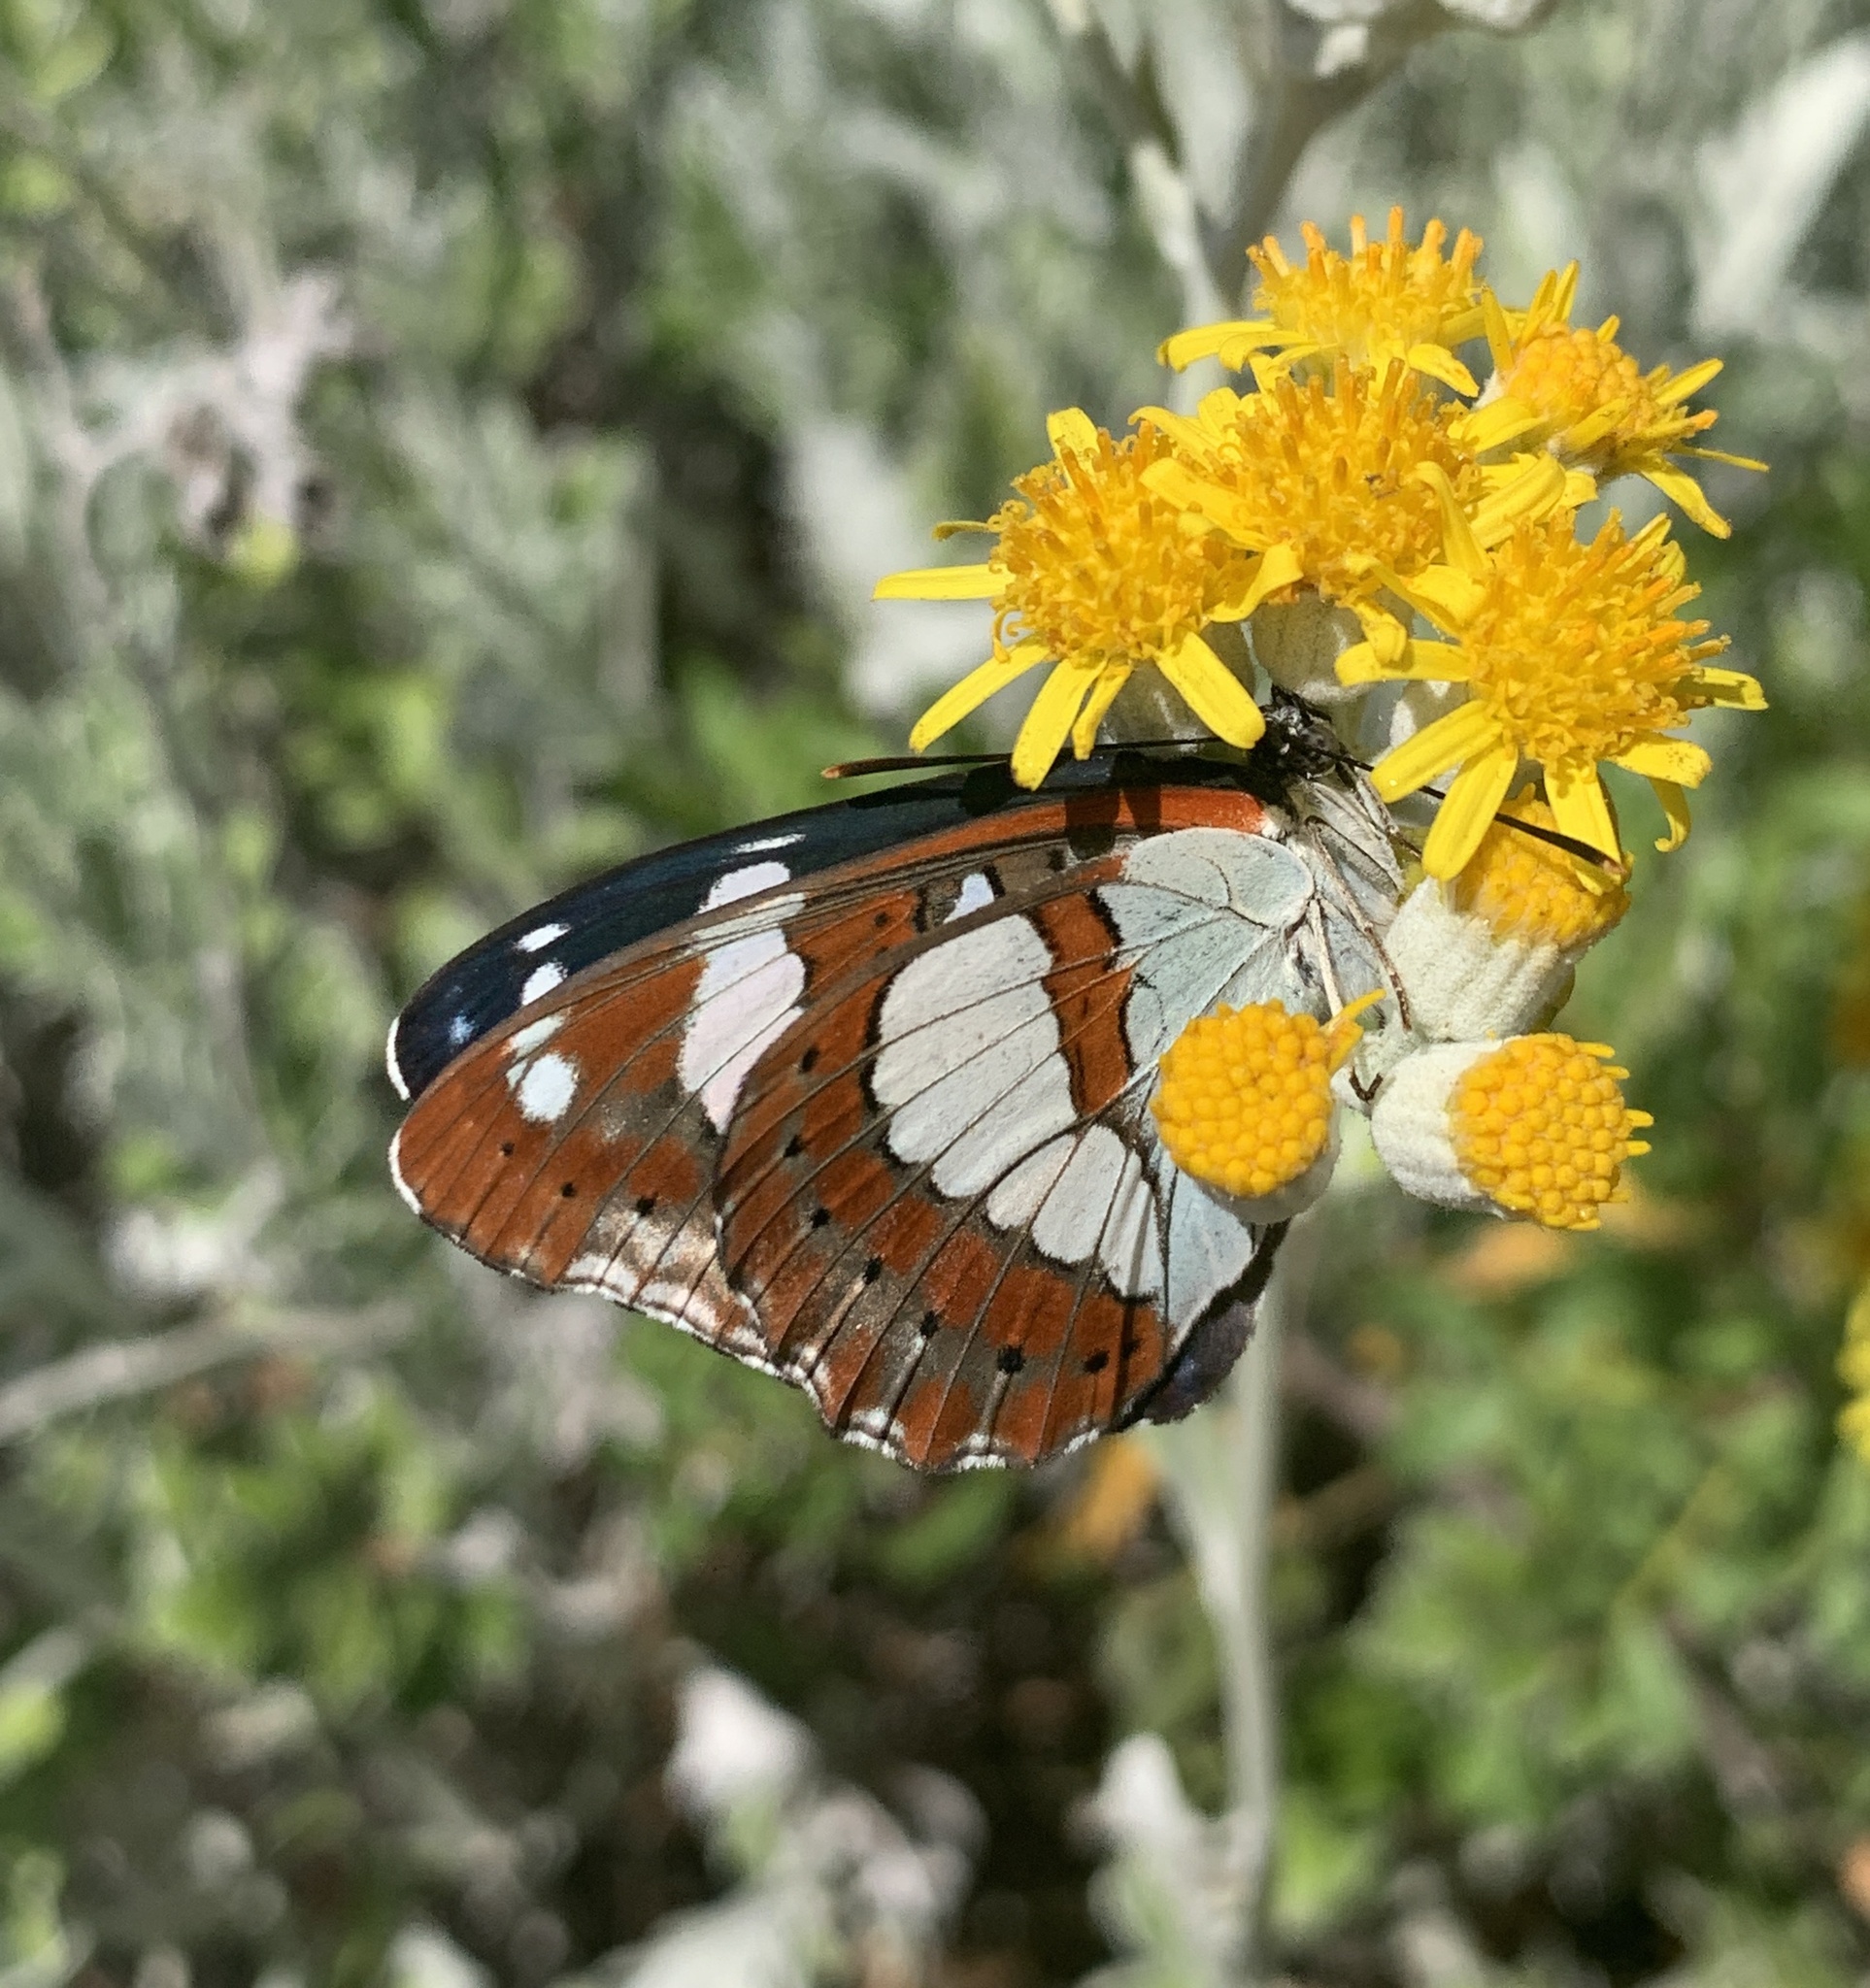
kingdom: Animalia
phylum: Arthropoda
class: Insecta
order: Lepidoptera
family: Nymphalidae
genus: Limenitis
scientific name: Limenitis reducta
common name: Southern white admiral
